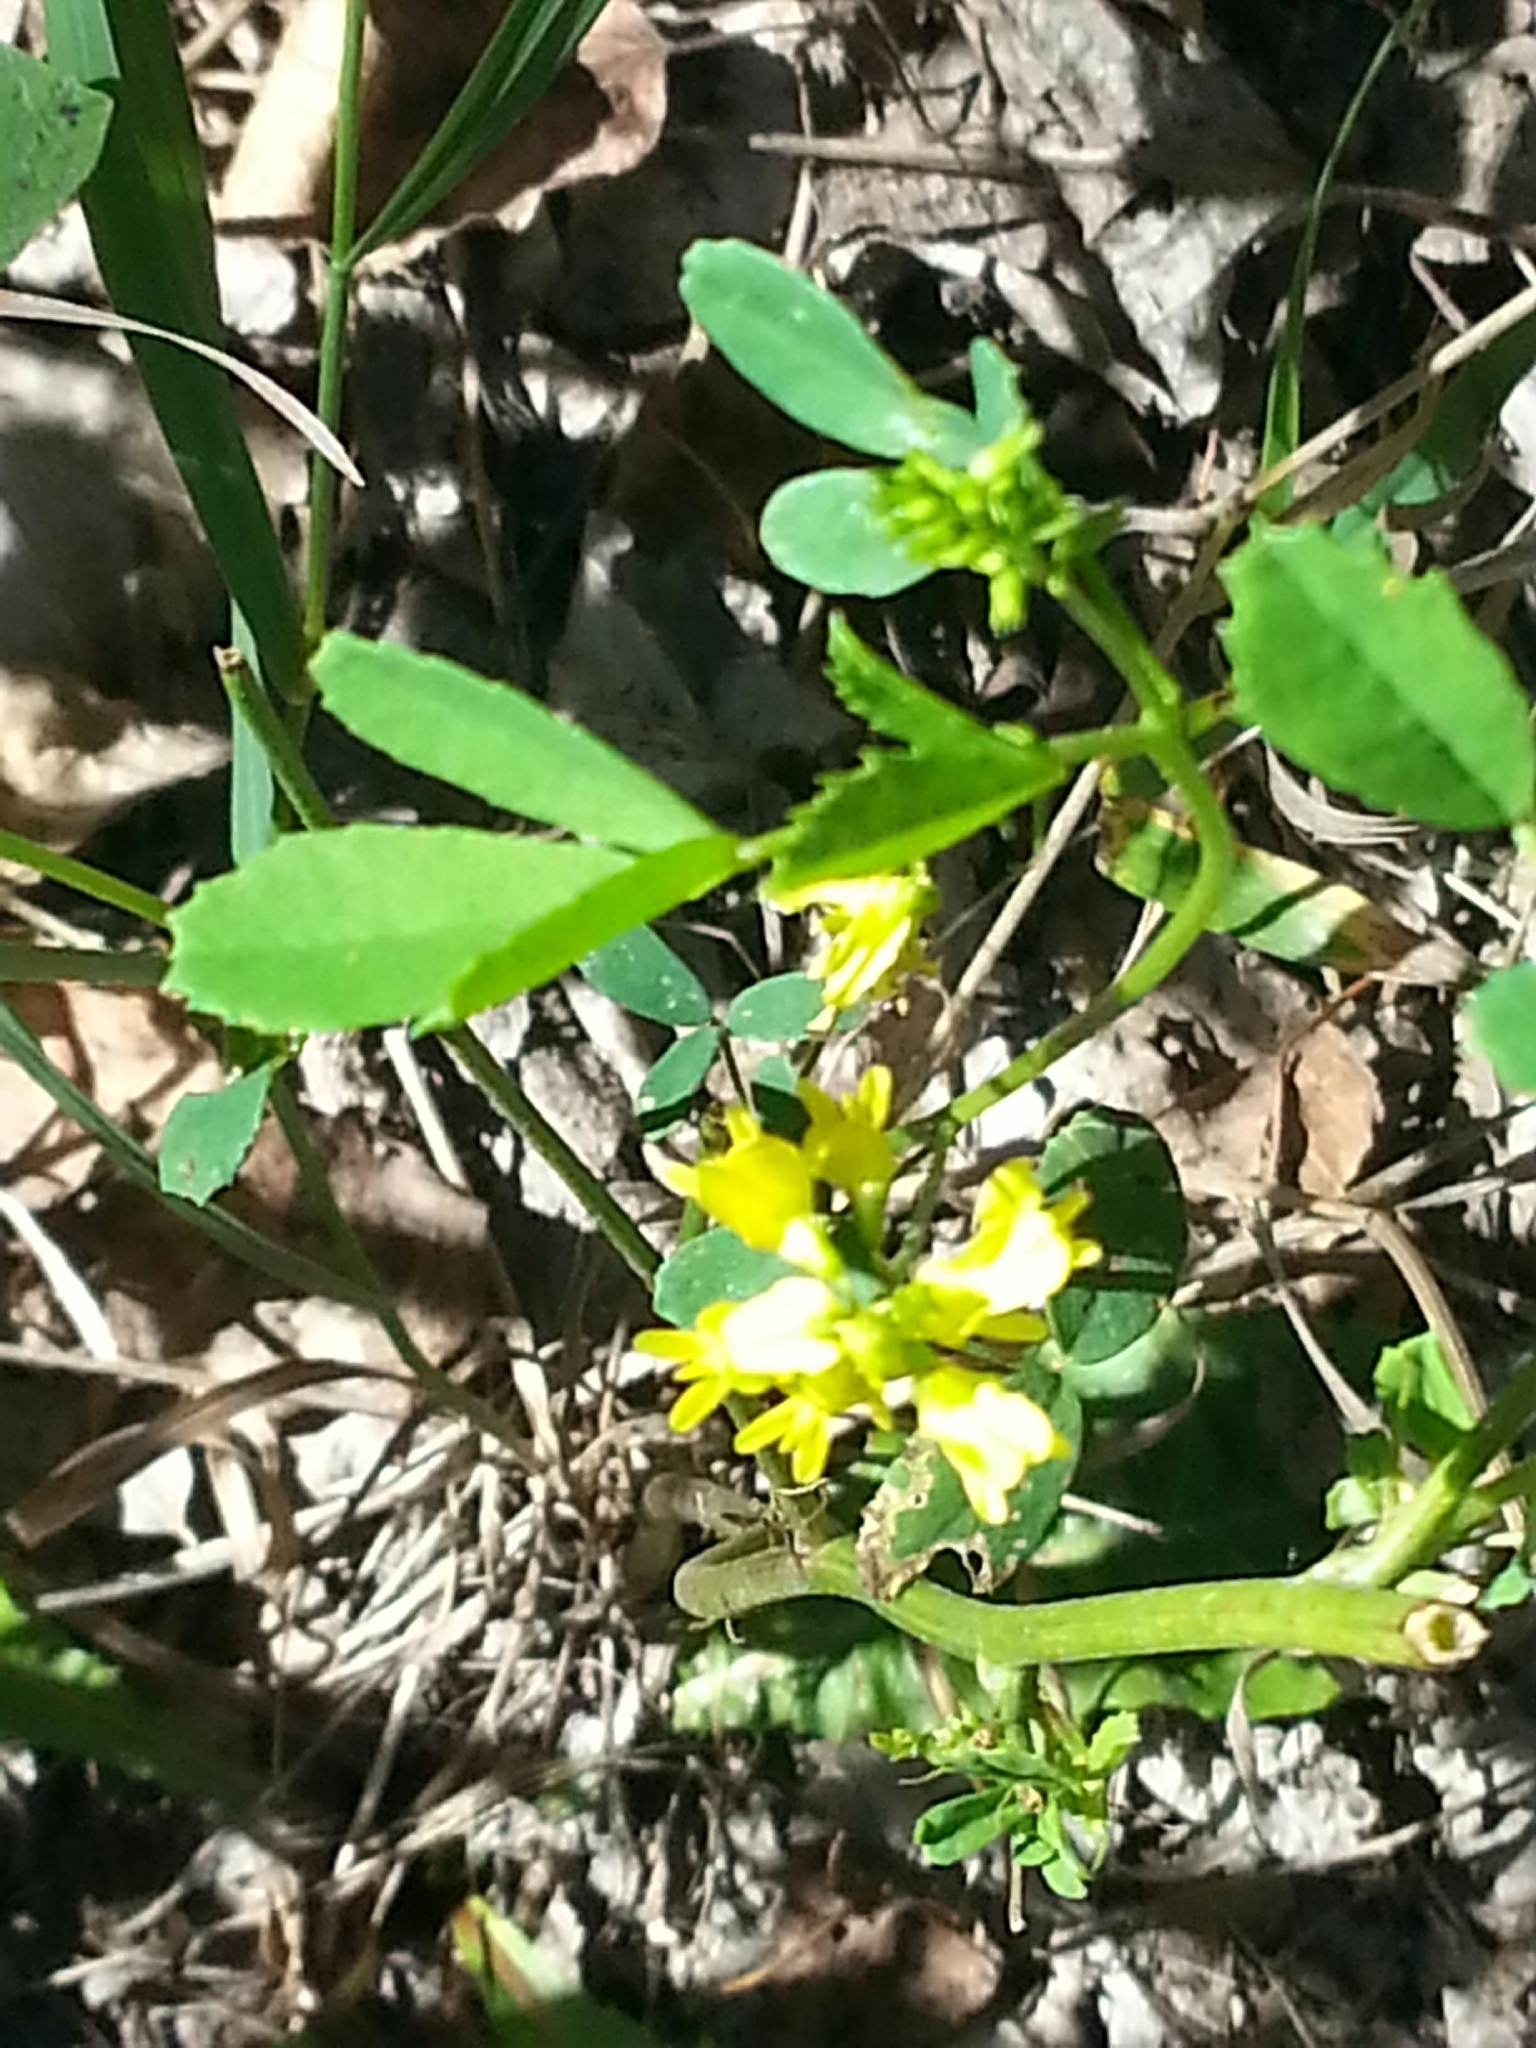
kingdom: Plantae
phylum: Tracheophyta
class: Magnoliopsida
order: Fabales
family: Fabaceae
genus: Melilotus
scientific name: Melilotus officinalis
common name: Sweetclover
